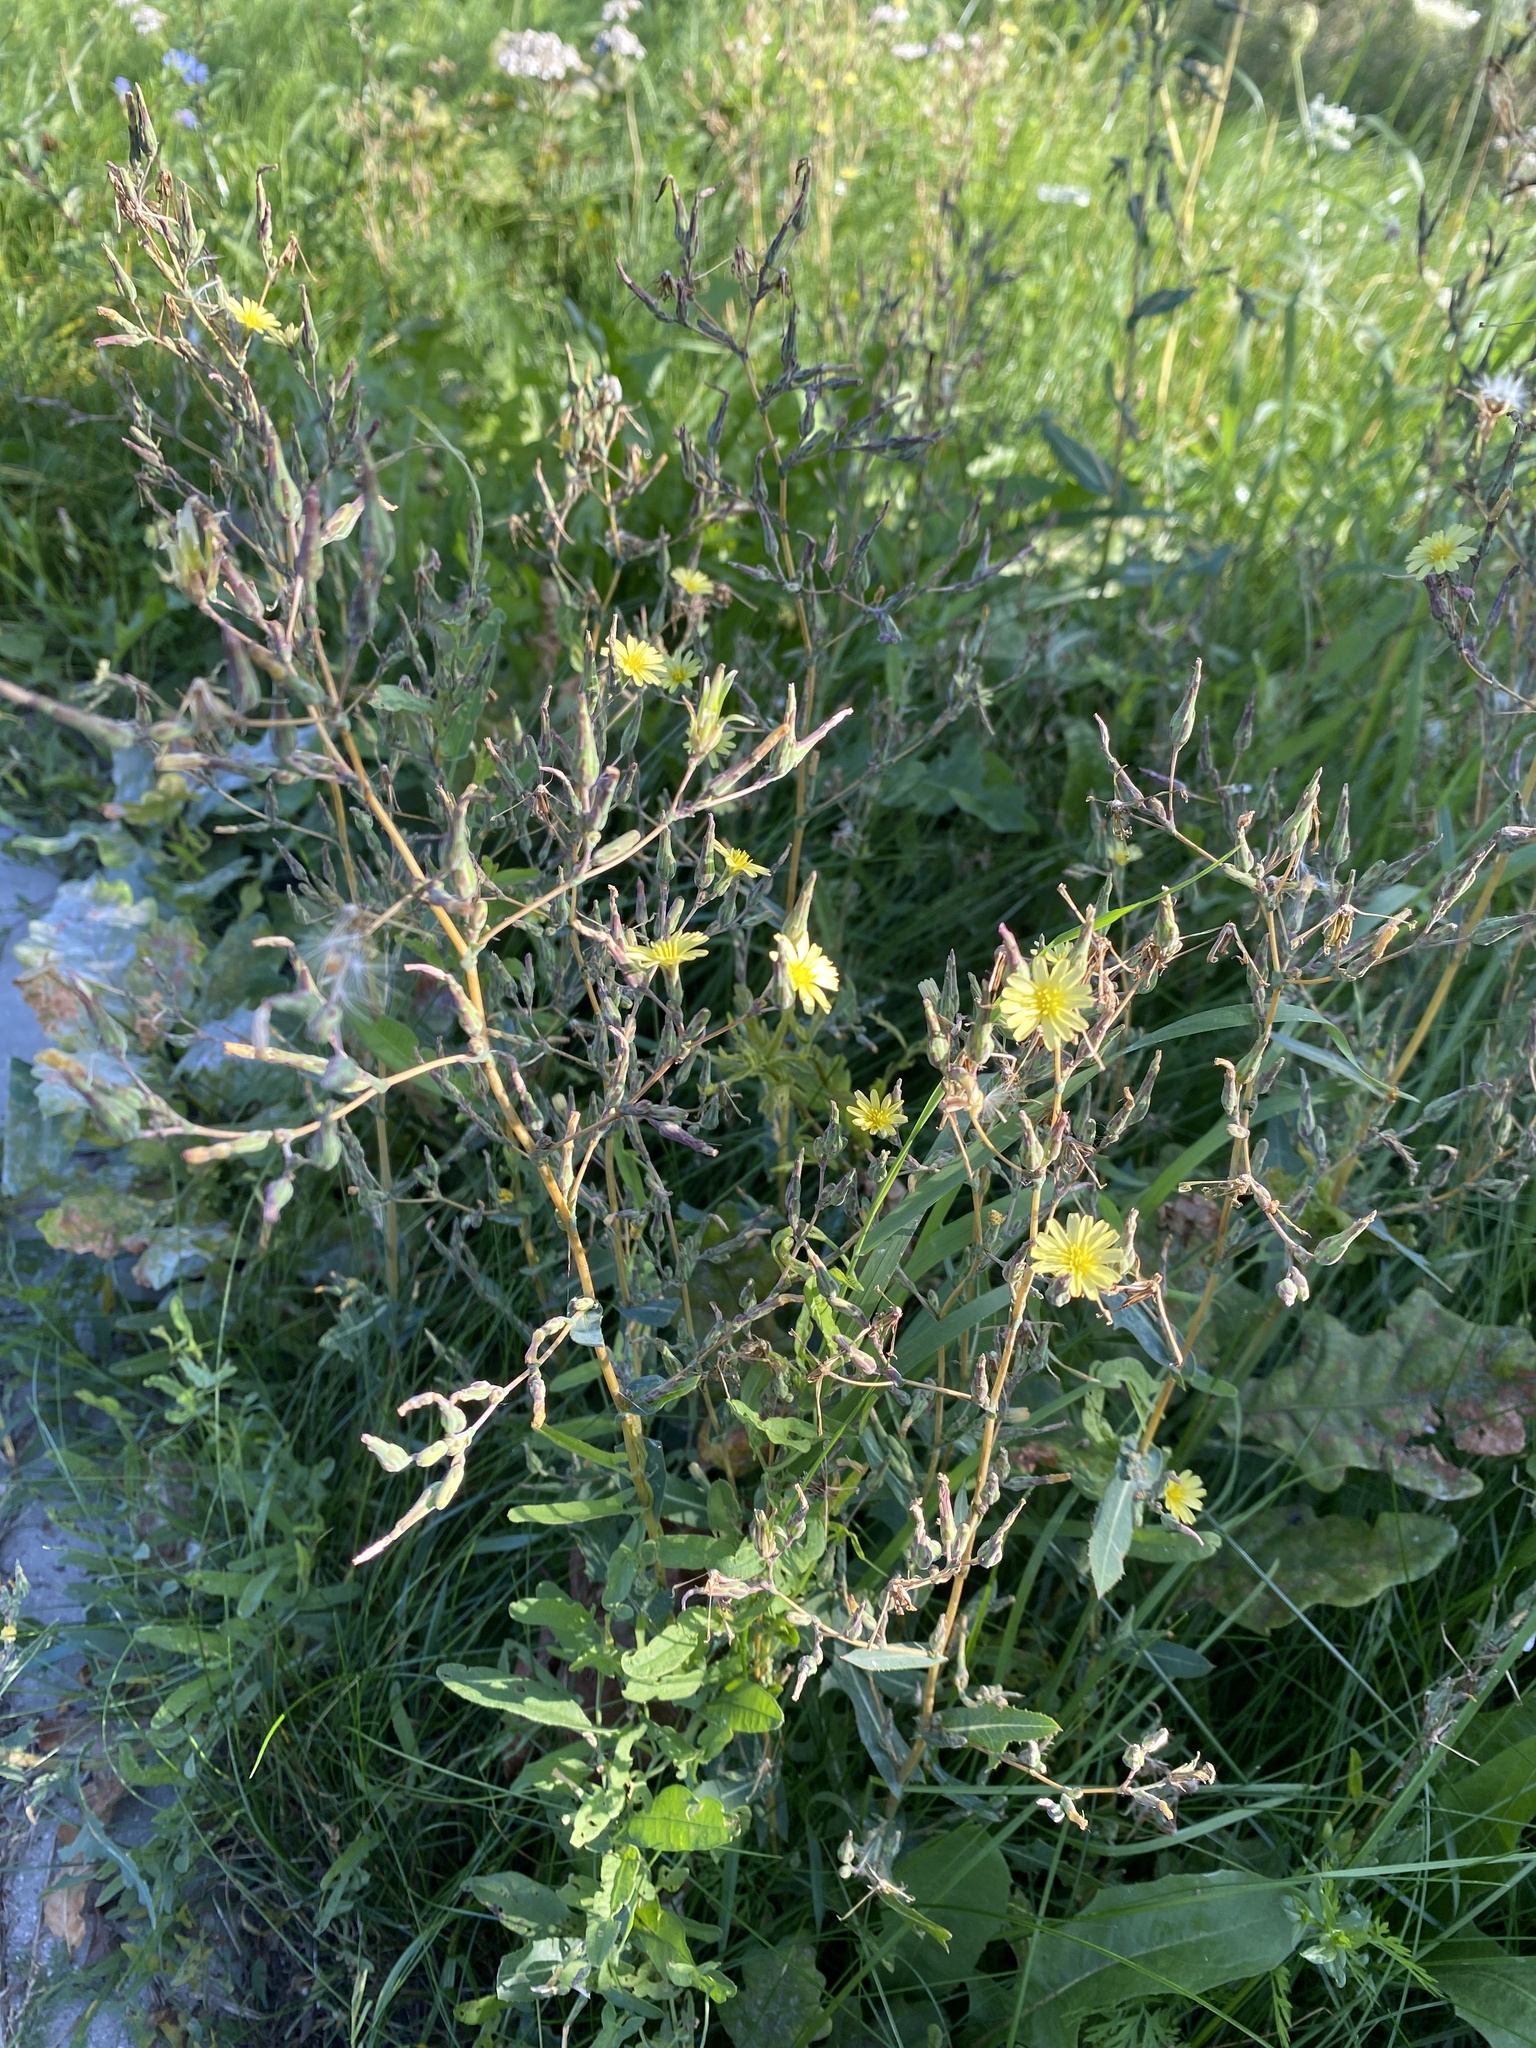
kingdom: Plantae
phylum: Tracheophyta
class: Magnoliopsida
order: Asterales
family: Asteraceae
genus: Lactuca
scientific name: Lactuca serriola
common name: Prickly lettuce
